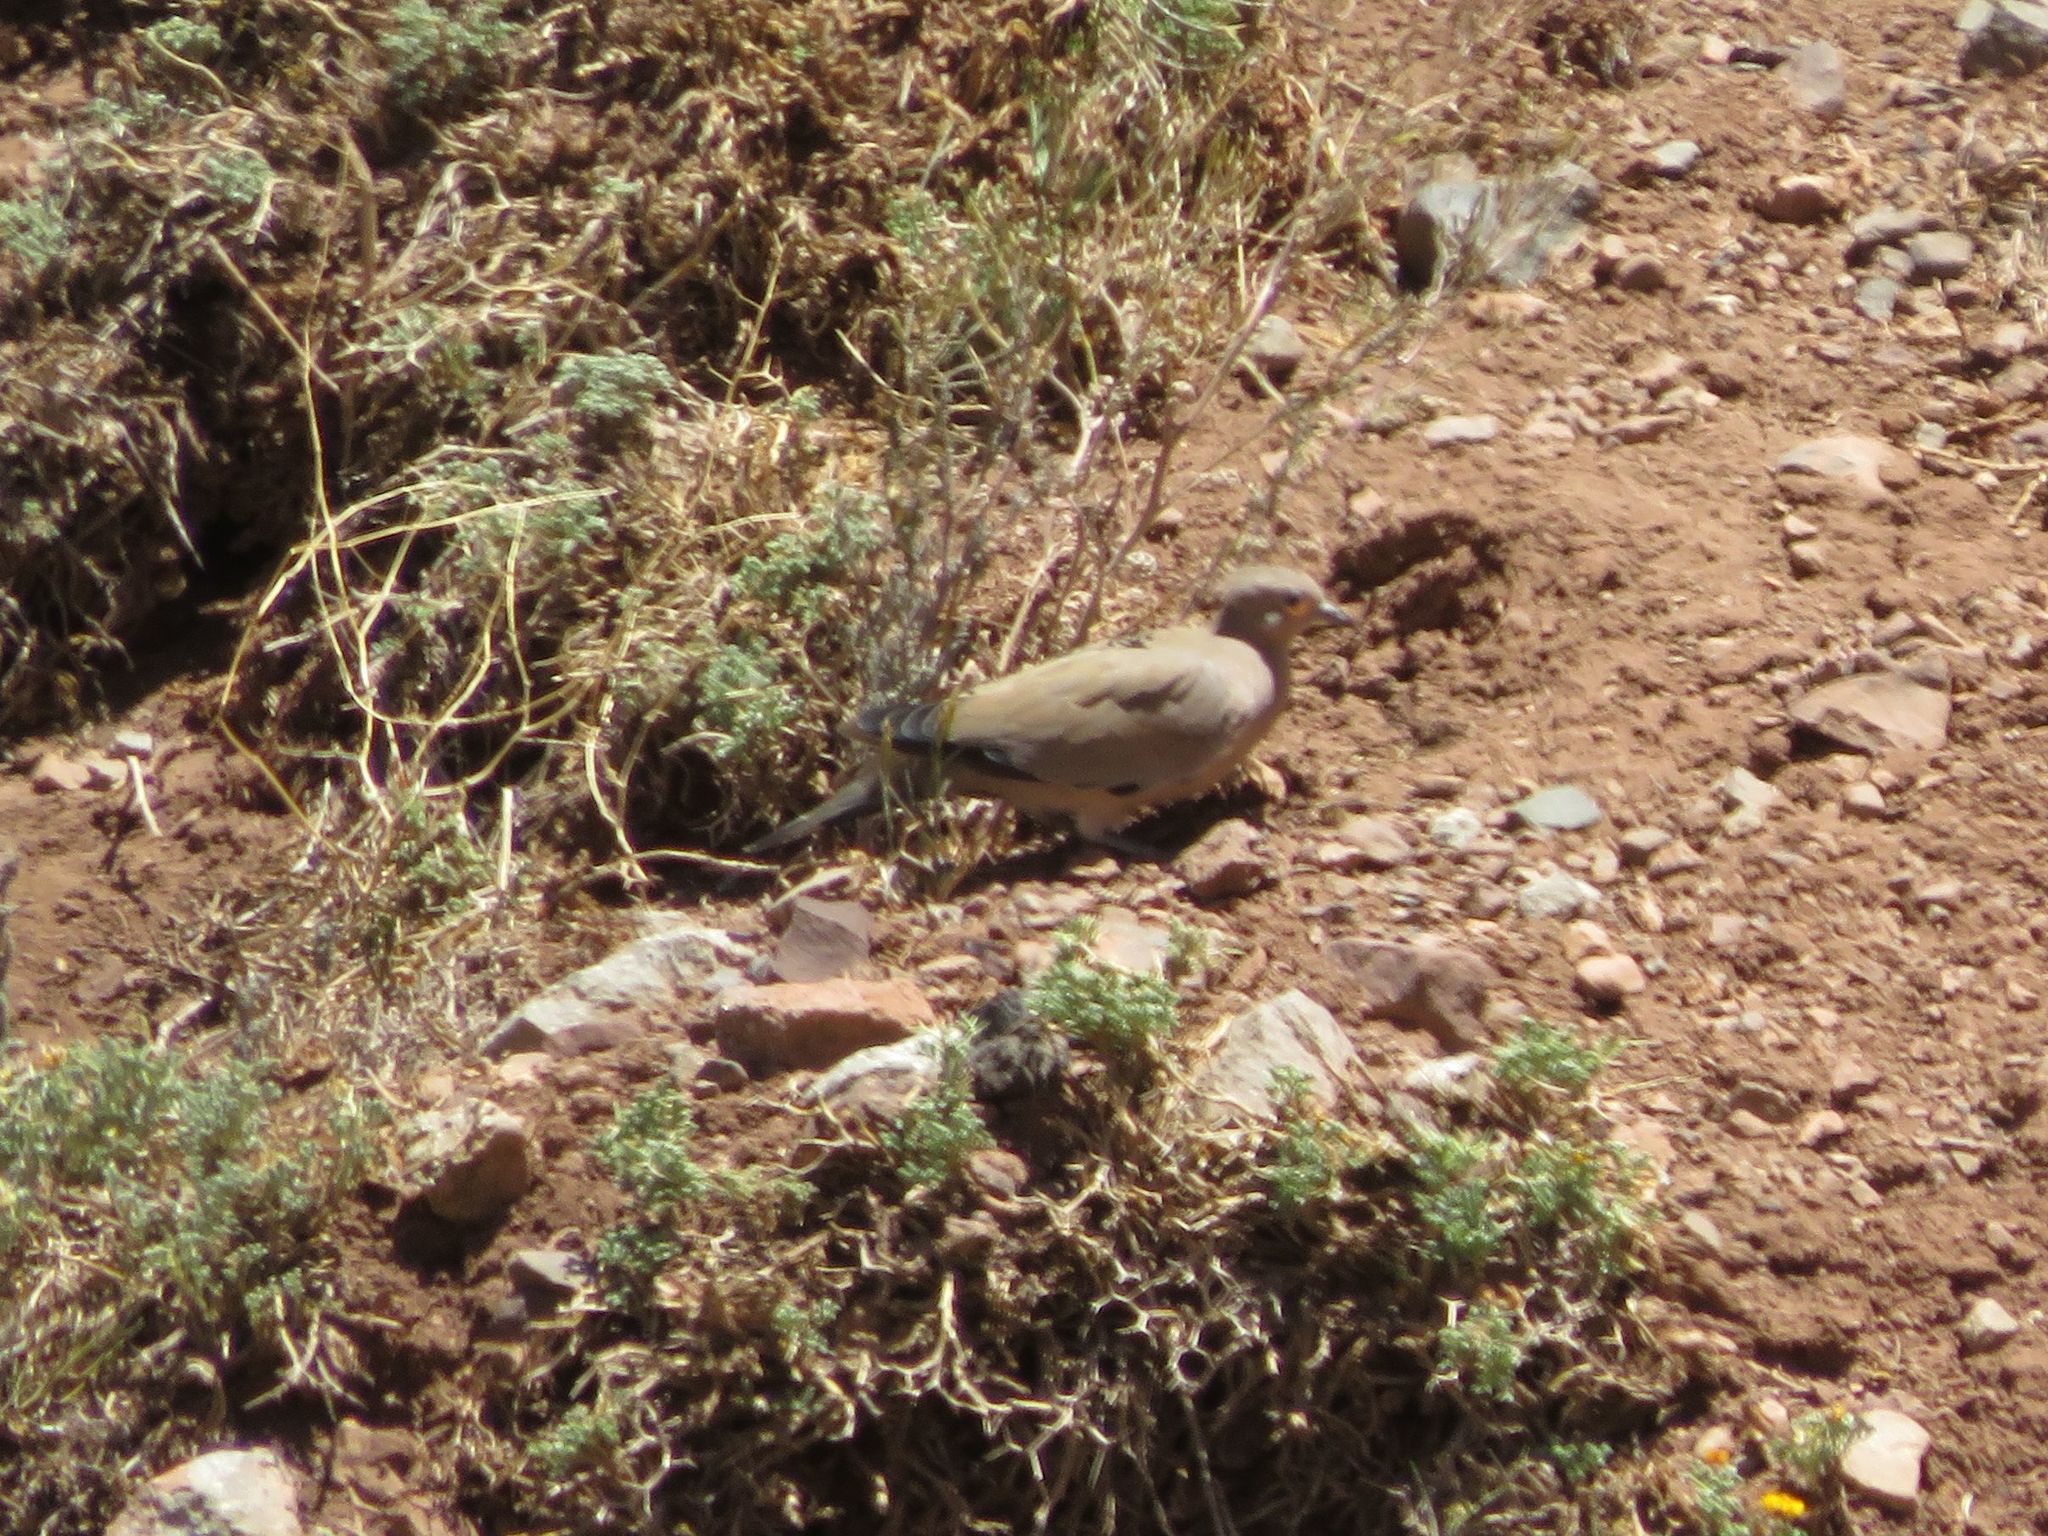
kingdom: Animalia
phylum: Chordata
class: Aves
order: Columbiformes
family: Columbidae
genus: Metriopelia
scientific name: Metriopelia melanoptera
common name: Black-winged ground dove
